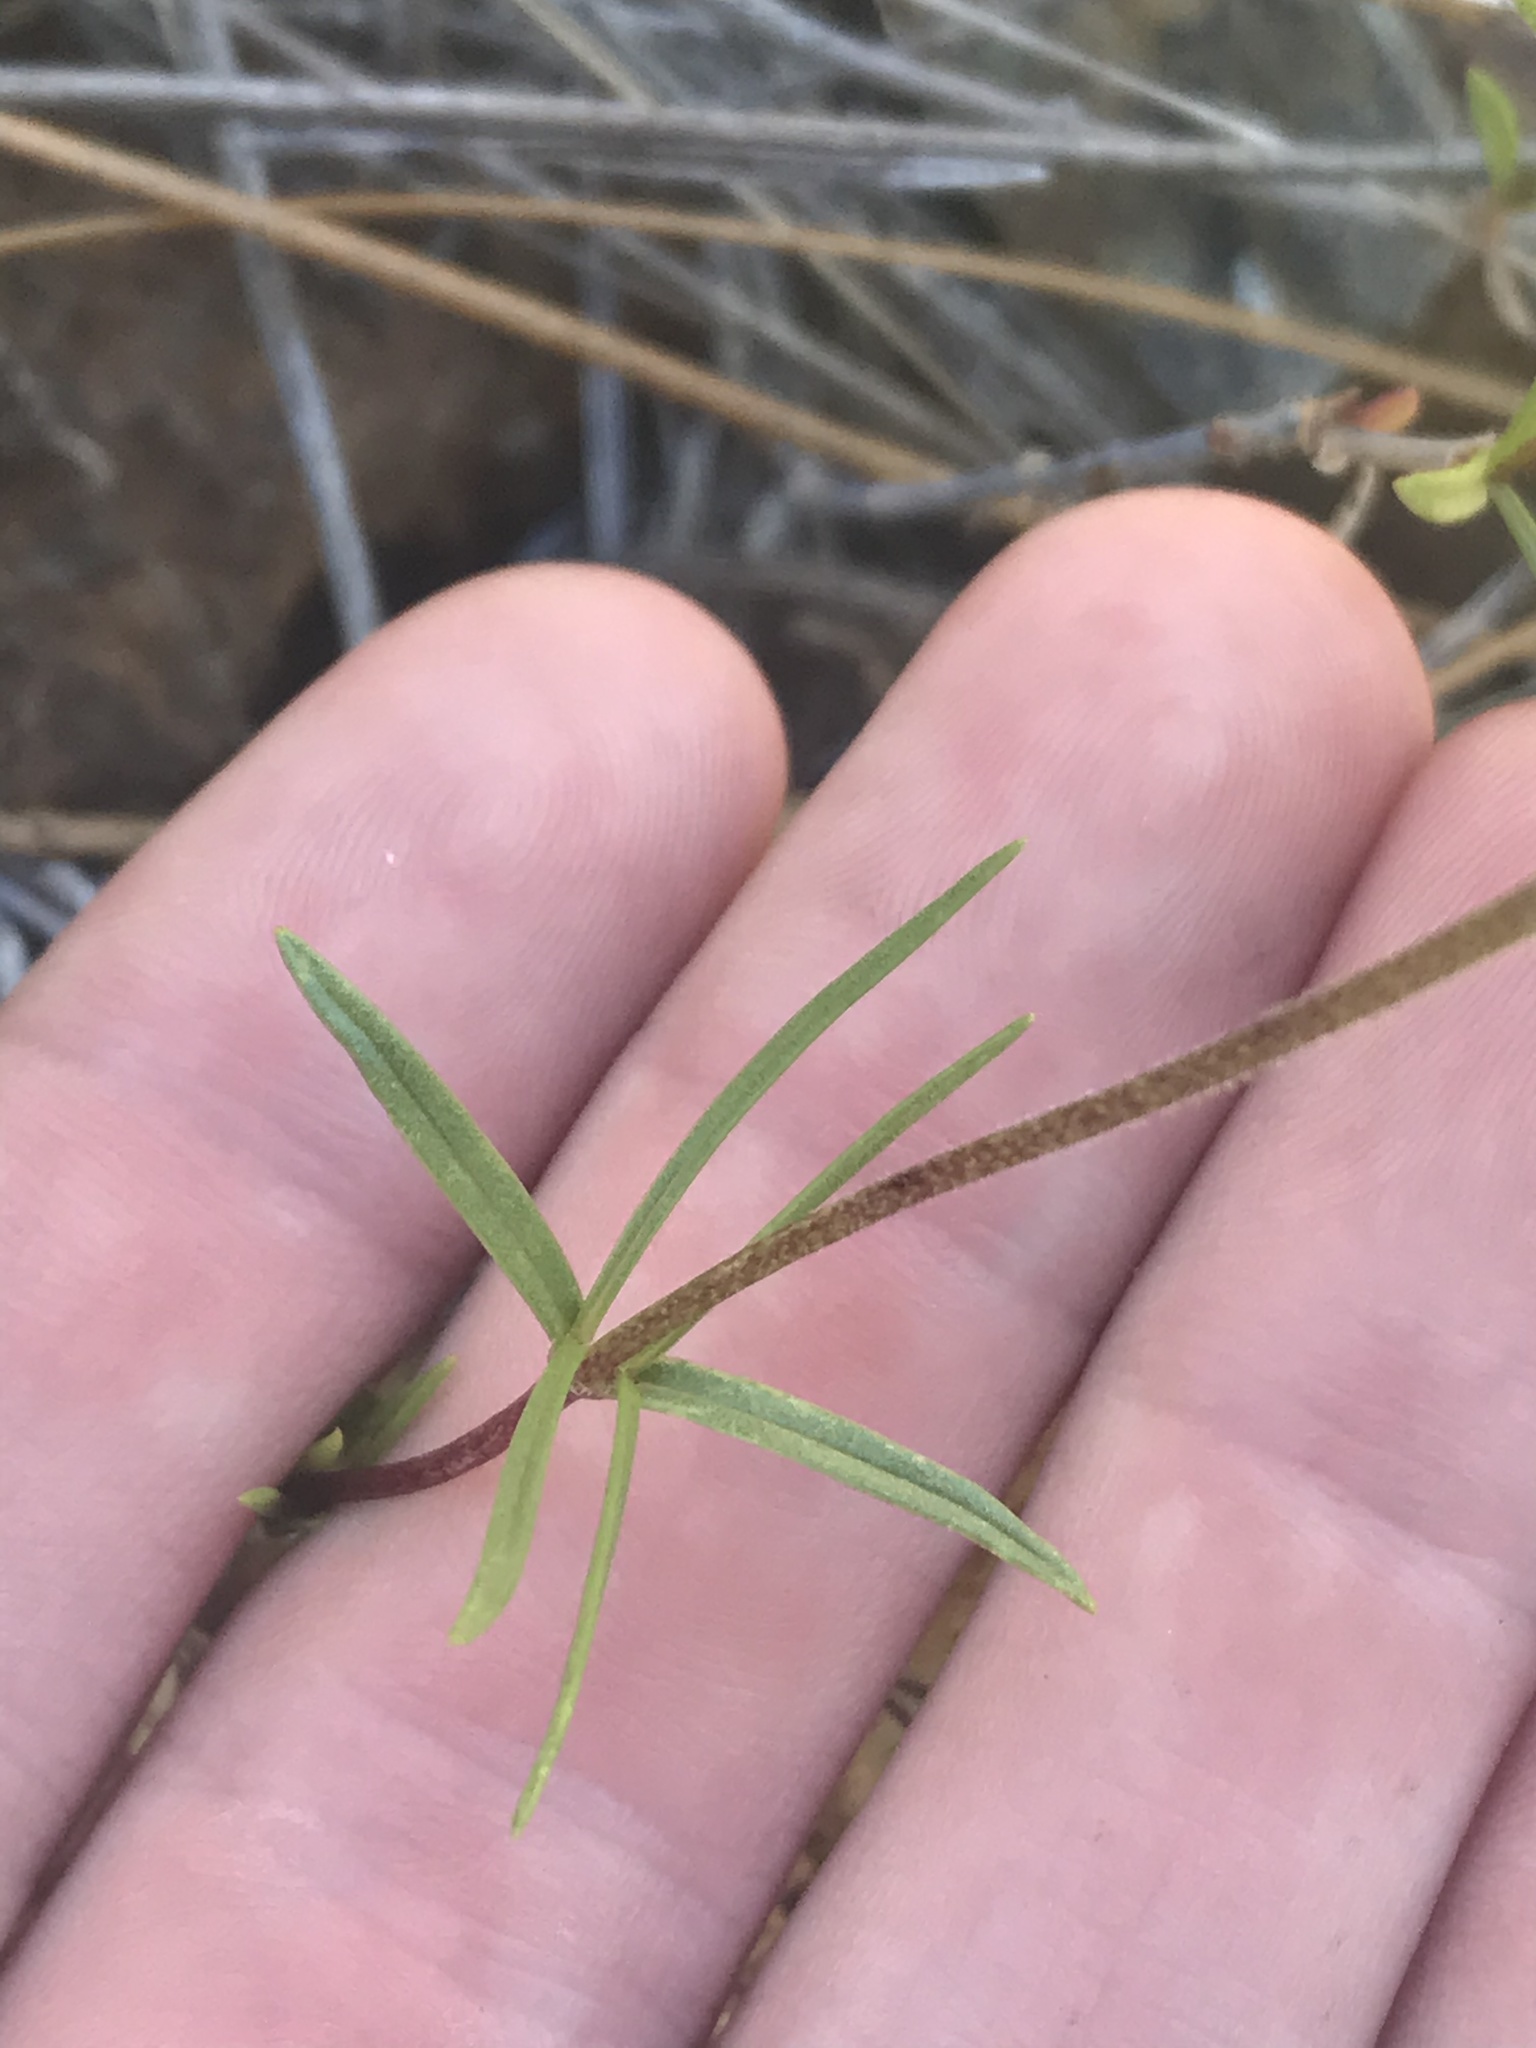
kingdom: Plantae
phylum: Tracheophyta
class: Magnoliopsida
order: Ericales
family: Polemoniaceae
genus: Phlox
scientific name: Phlox speciosa
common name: Bush phlox
